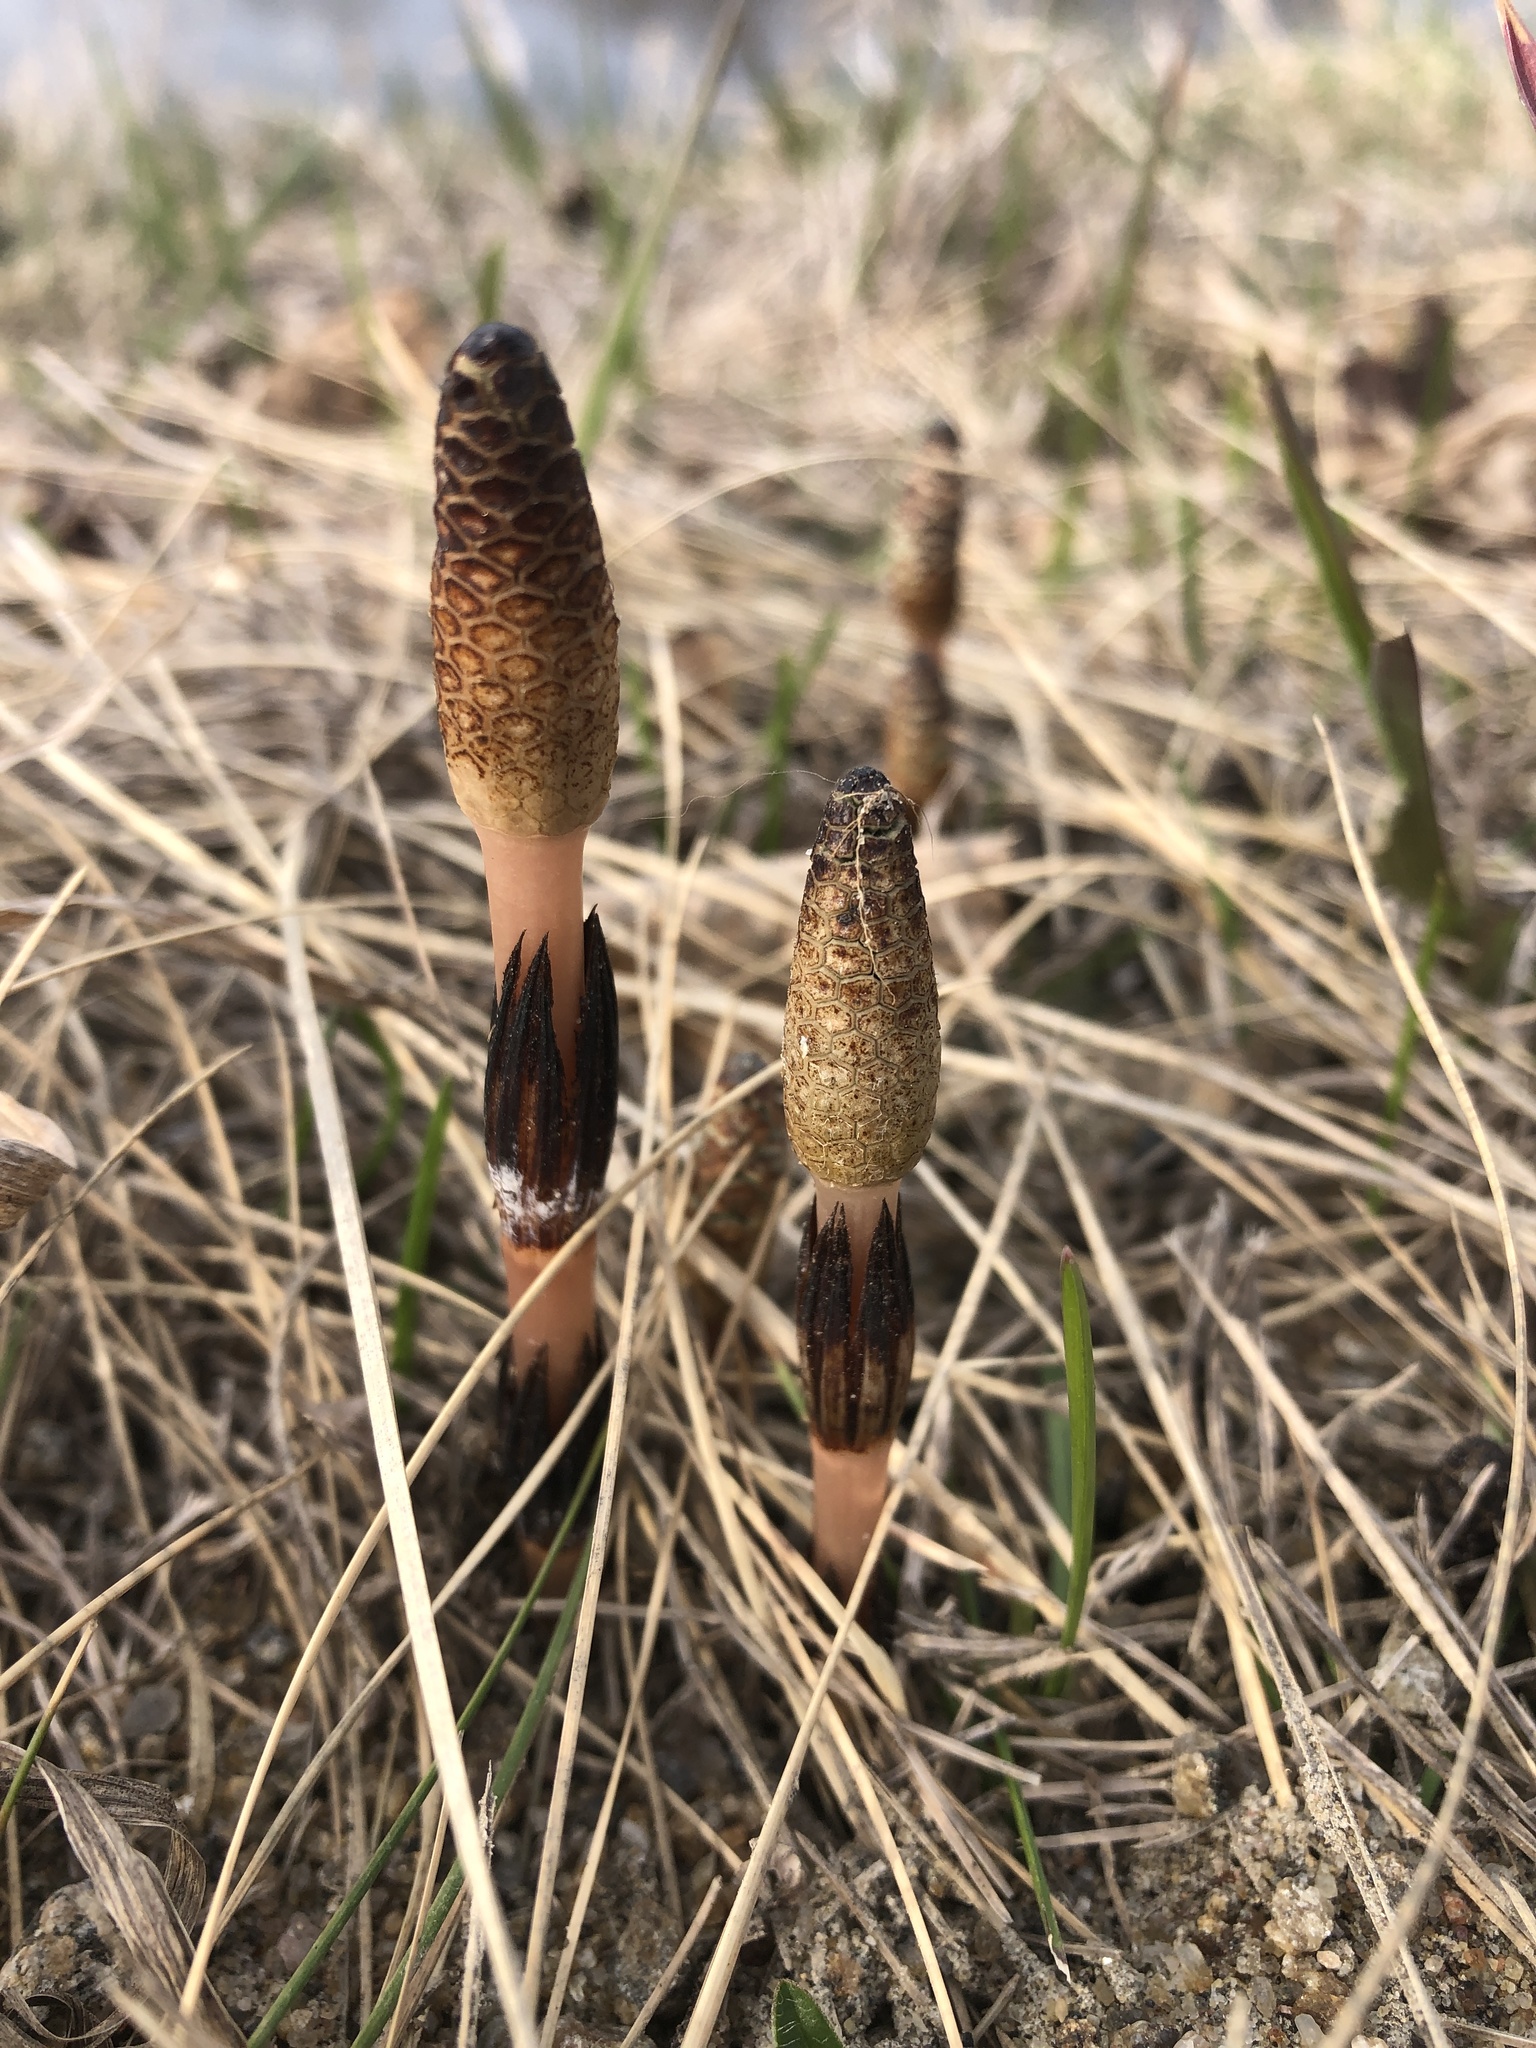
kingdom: Plantae
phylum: Tracheophyta
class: Polypodiopsida
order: Equisetales
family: Equisetaceae
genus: Equisetum
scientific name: Equisetum arvense
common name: Field horsetail
